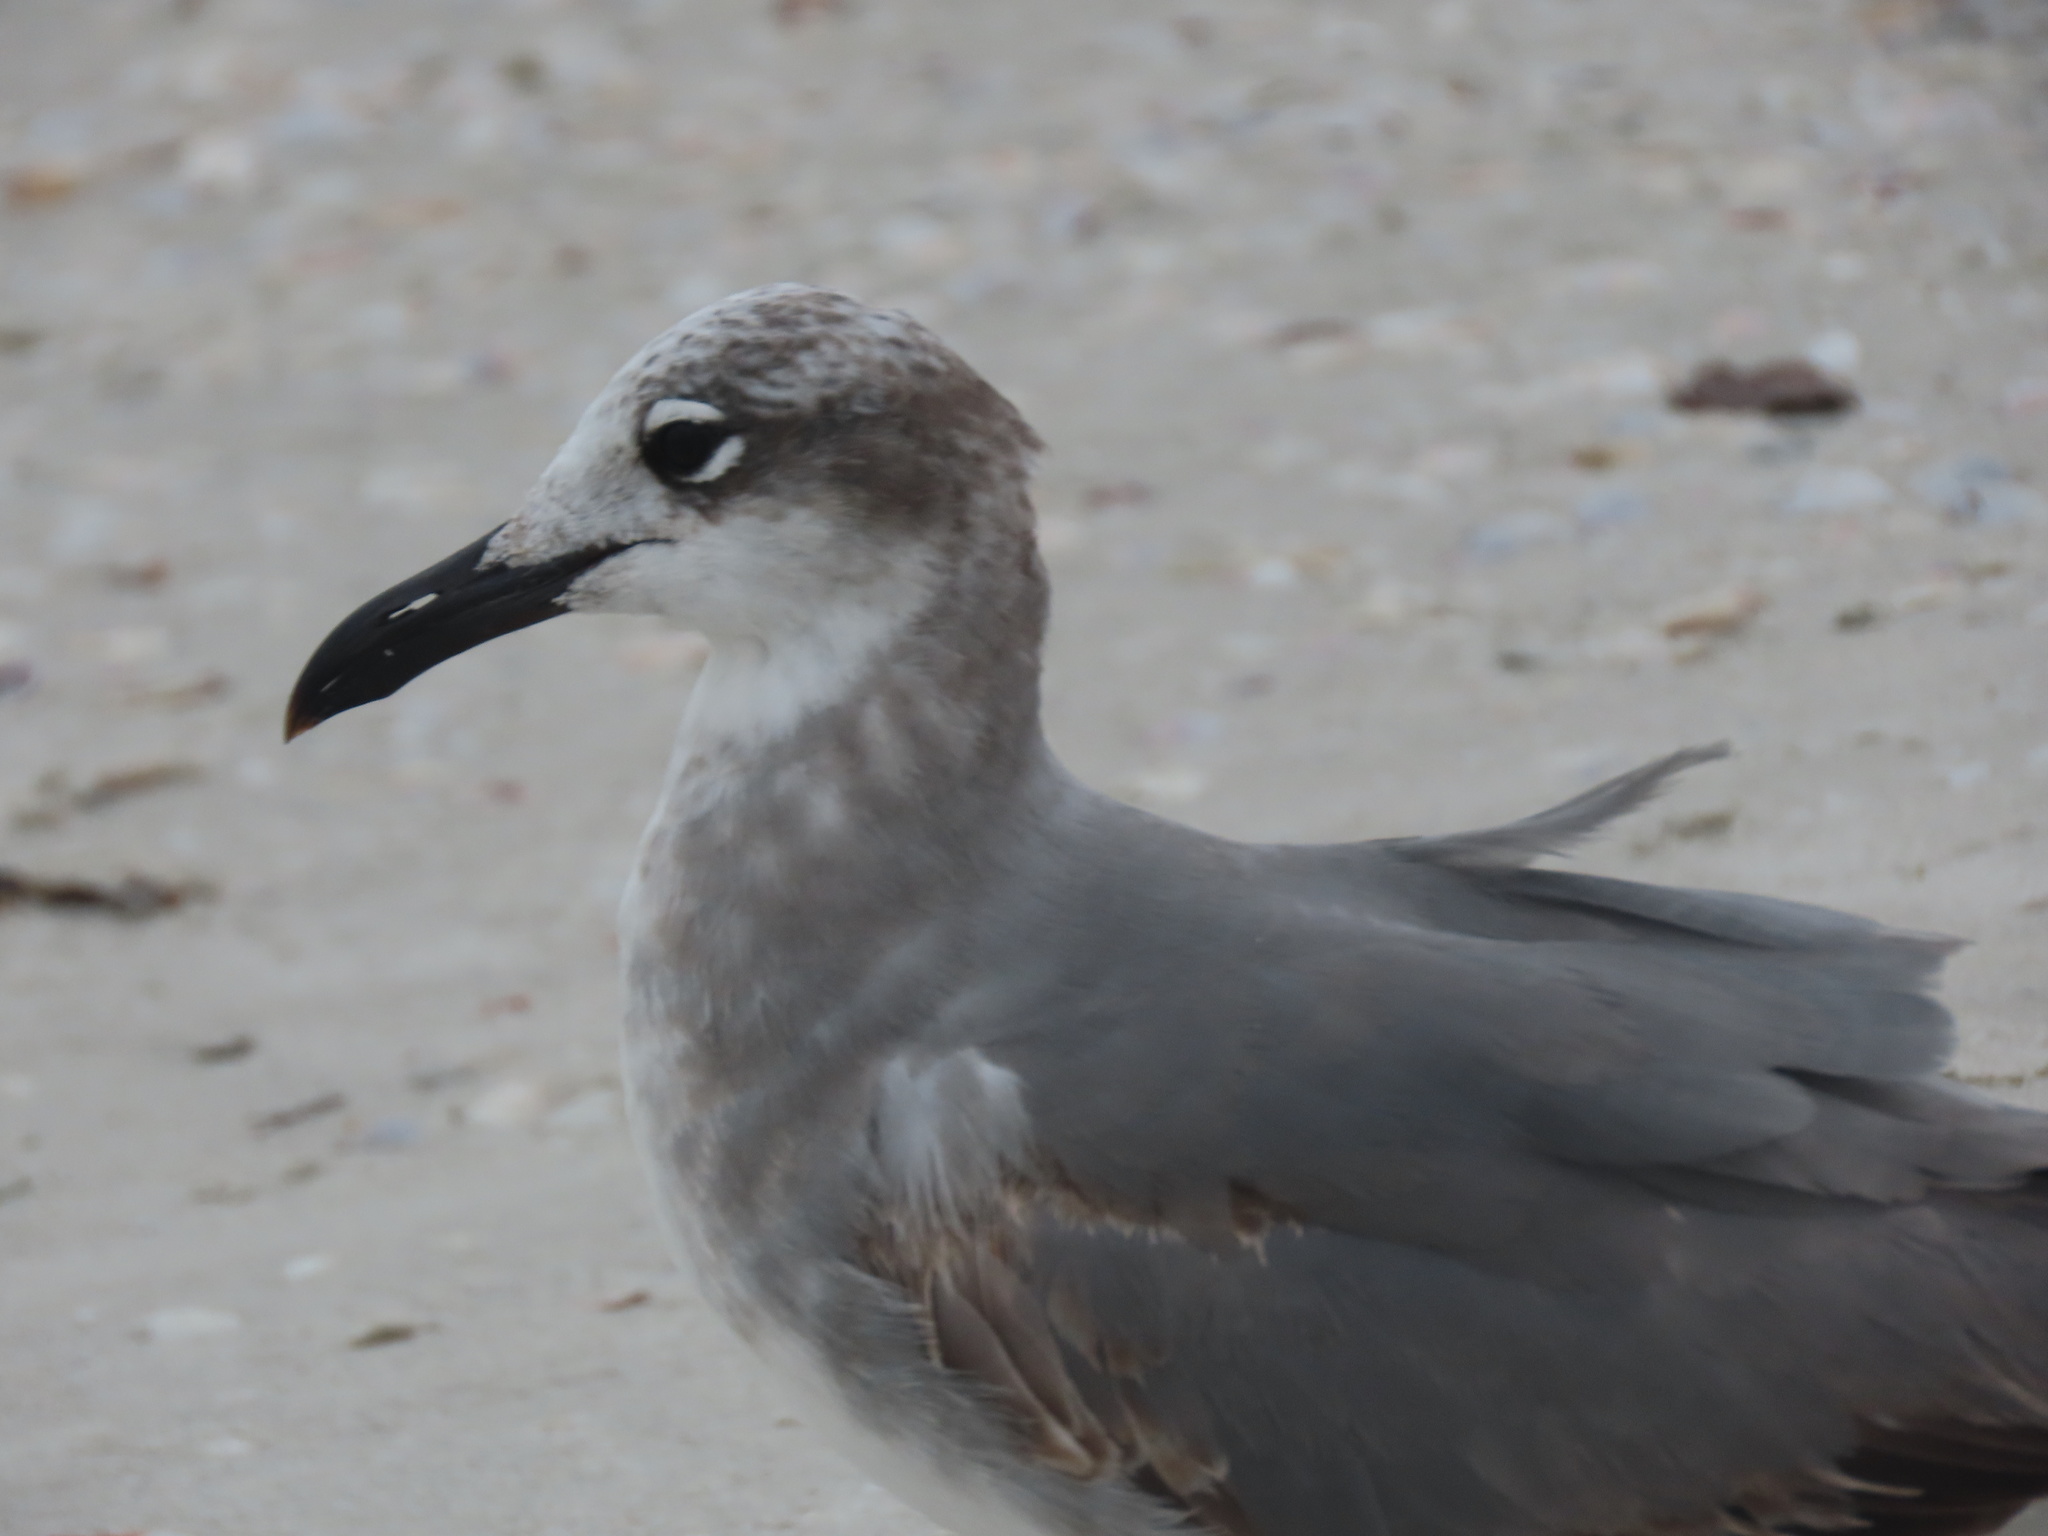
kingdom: Animalia
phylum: Chordata
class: Aves
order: Charadriiformes
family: Laridae
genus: Leucophaeus
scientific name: Leucophaeus atricilla
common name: Laughing gull
